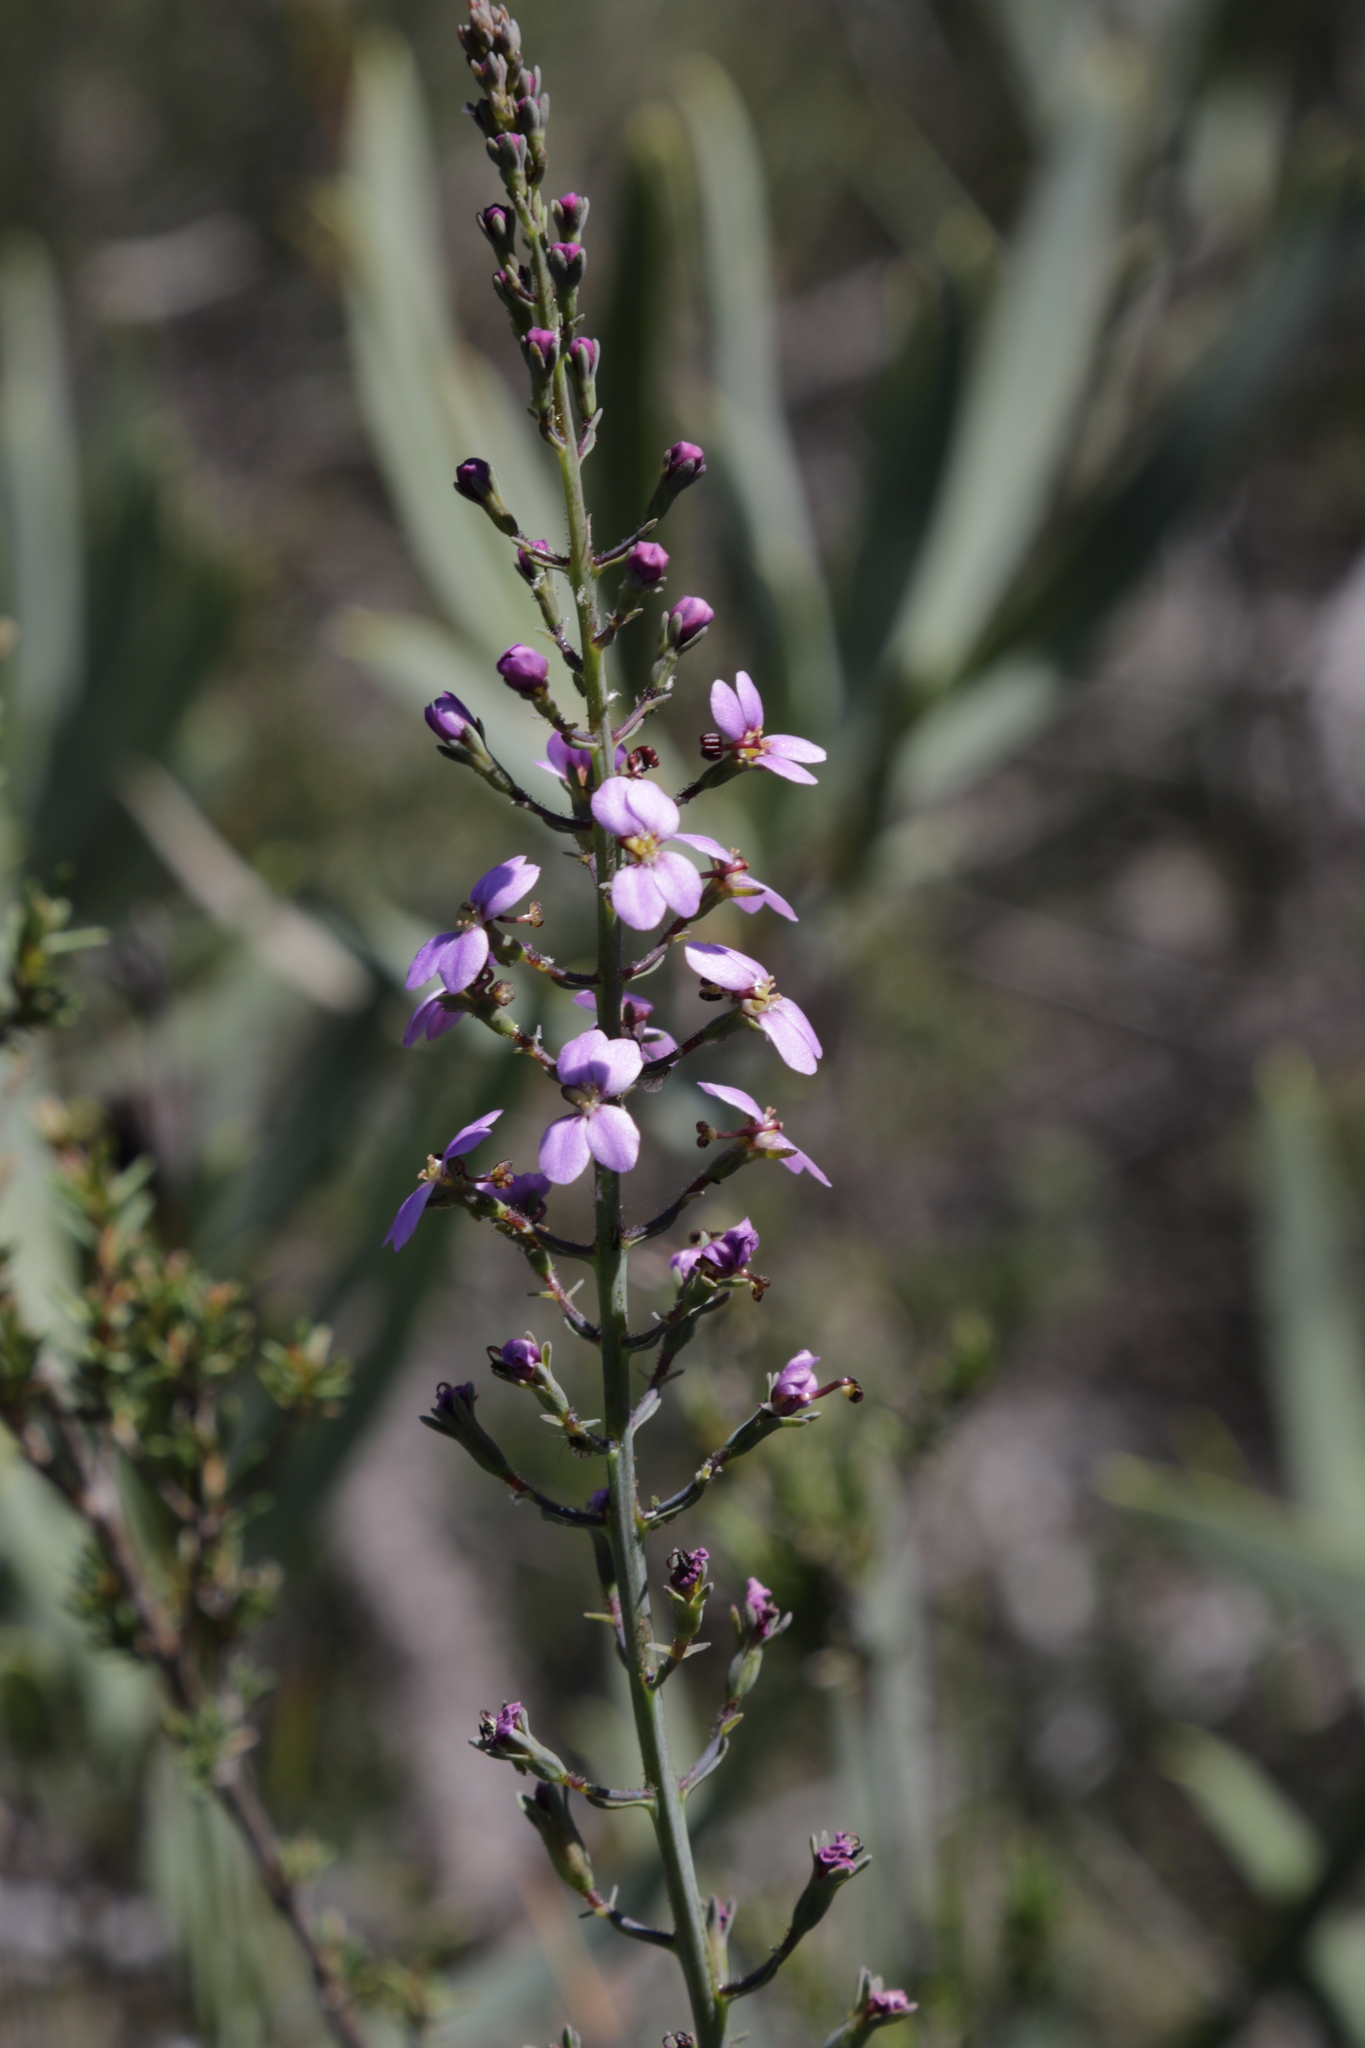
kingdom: Plantae
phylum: Tracheophyta
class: Magnoliopsida
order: Asterales
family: Stylidiaceae
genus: Stylidium
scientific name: Stylidium maitlandianum
